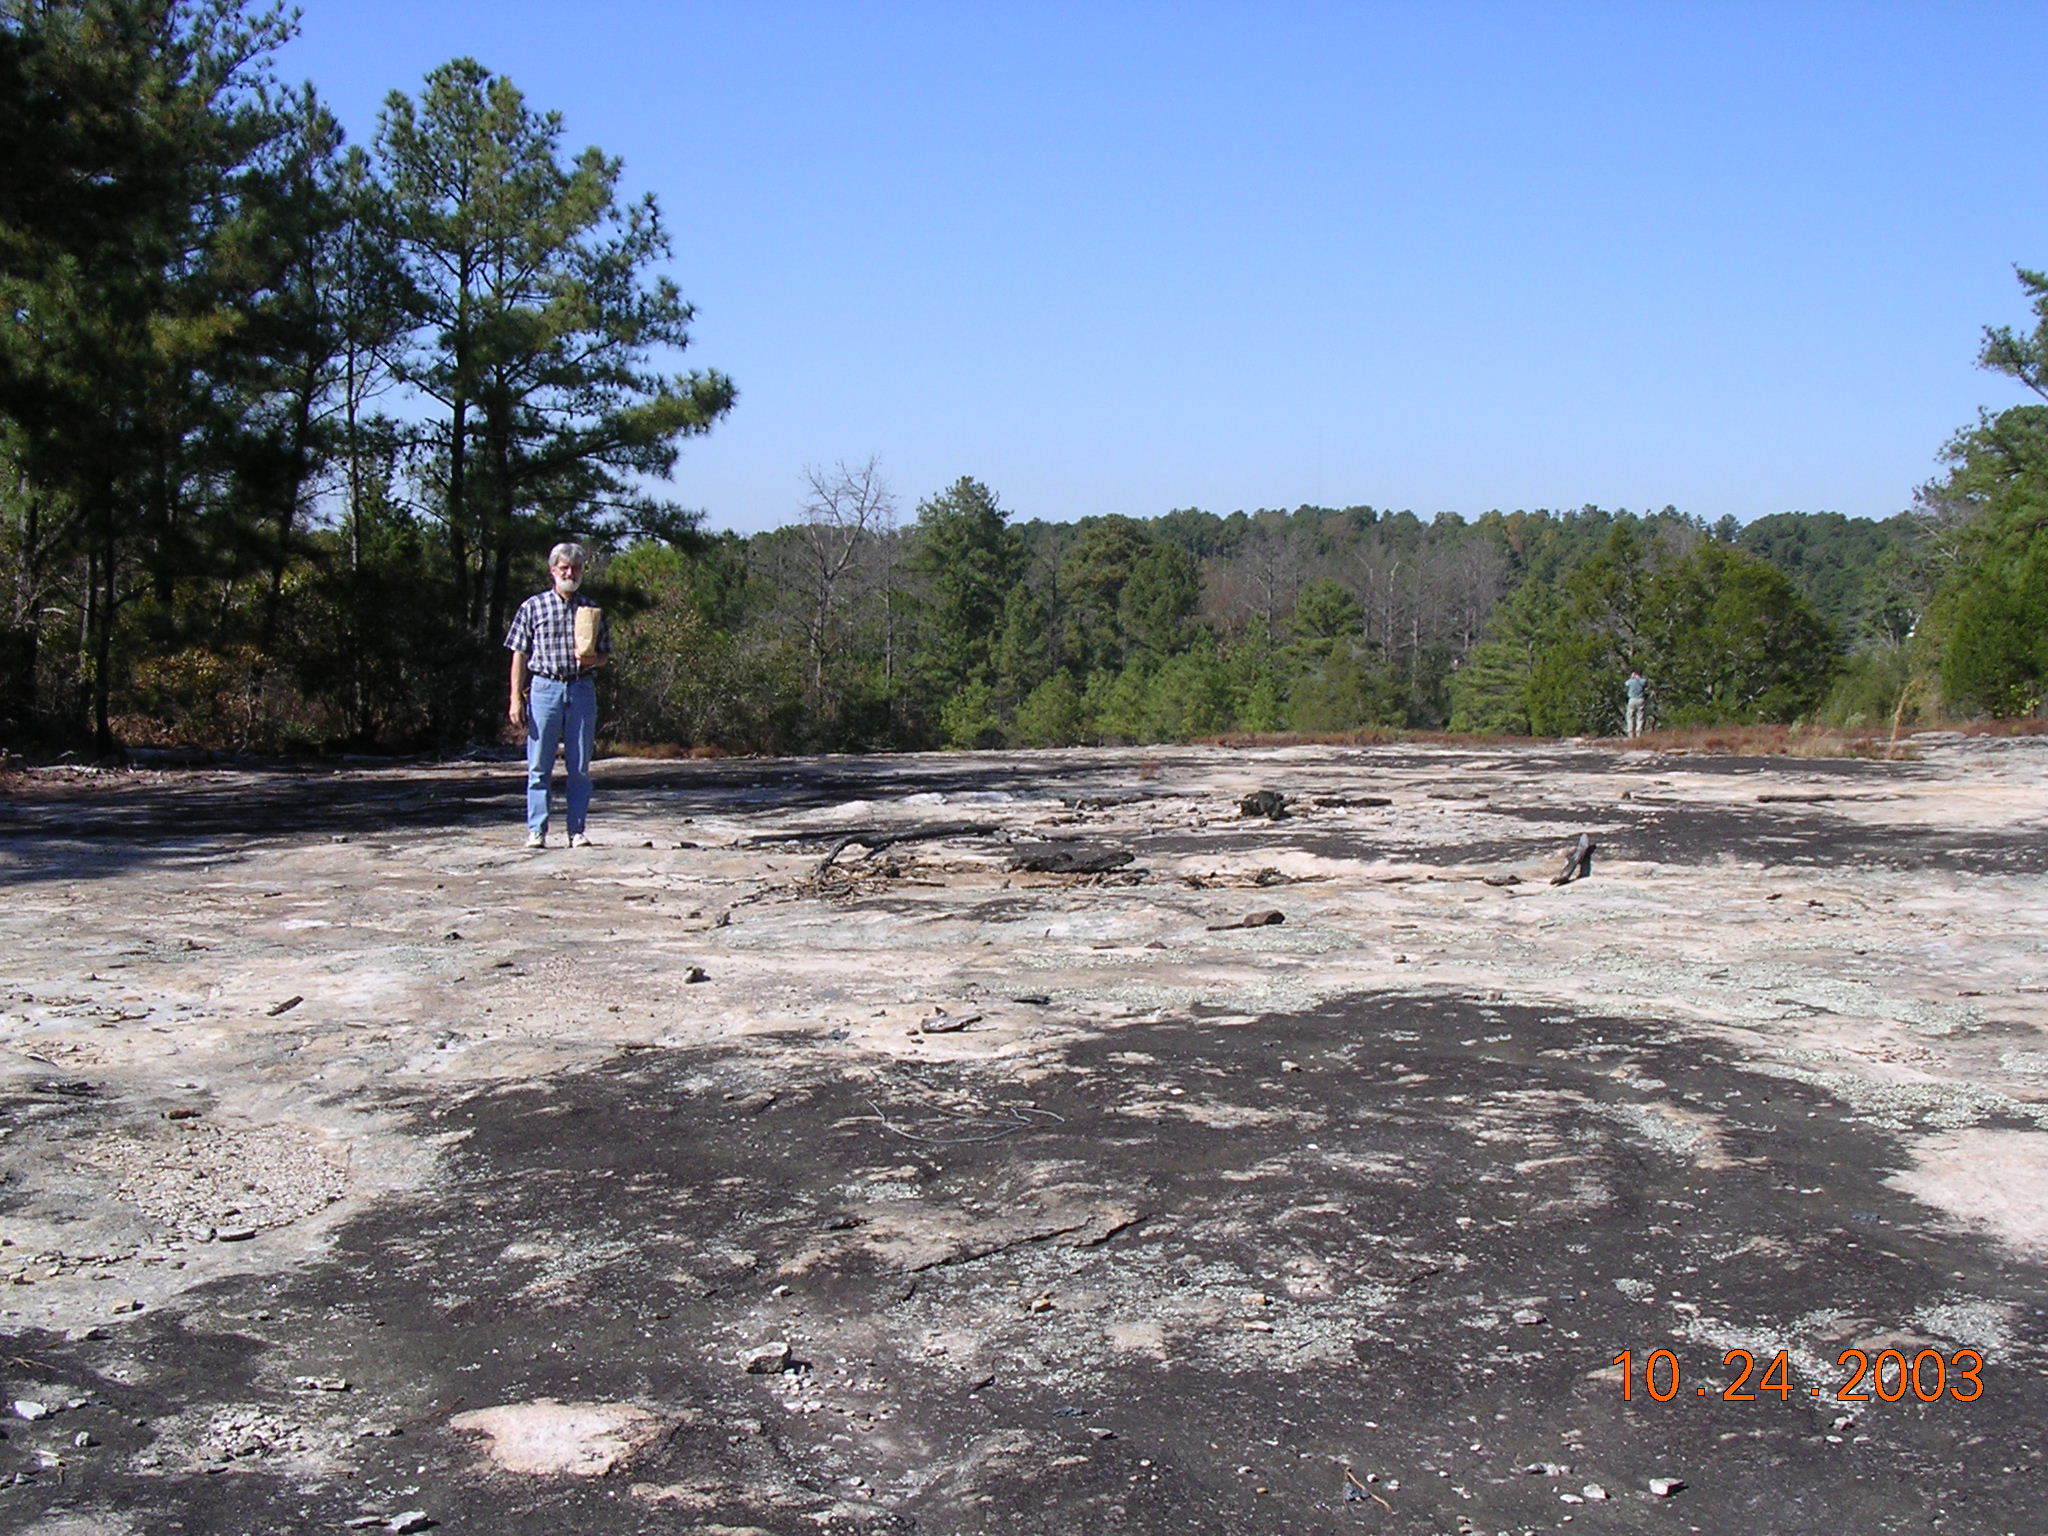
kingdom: Plantae
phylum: Tracheophyta
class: Magnoliopsida
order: Asterales
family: Asteraceae
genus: Helianthus
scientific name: Helianthus porteri
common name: Porter's sunflower
